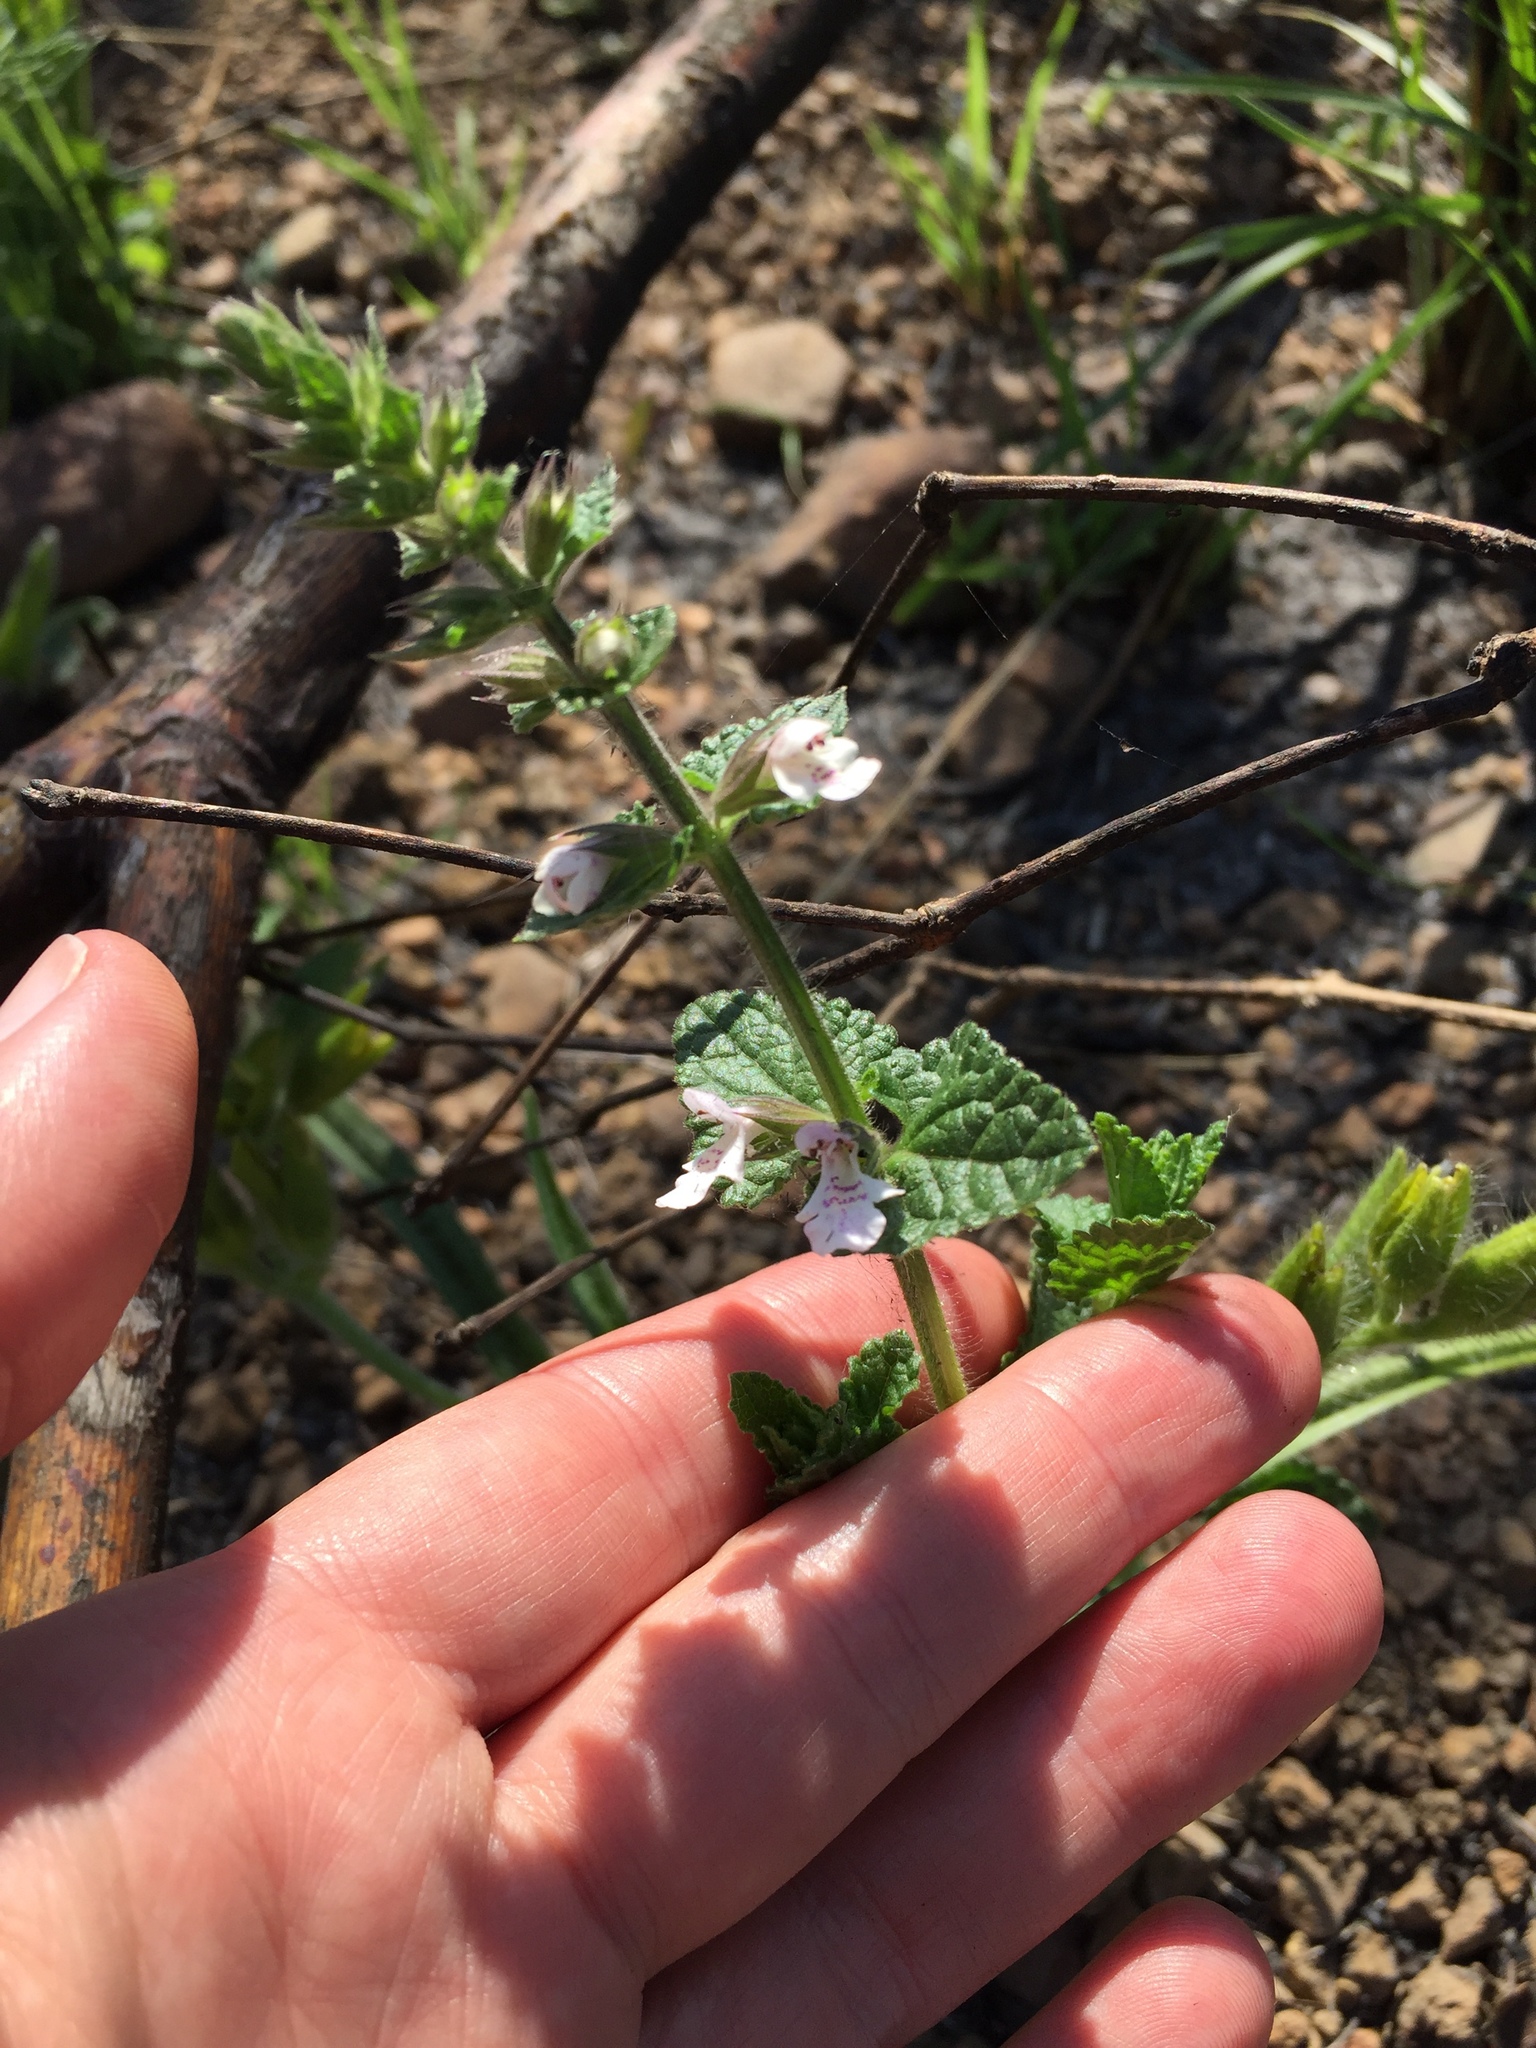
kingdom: Plantae
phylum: Tracheophyta
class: Magnoliopsida
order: Lamiales
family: Lamiaceae
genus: Stachys
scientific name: Stachys natalensis
